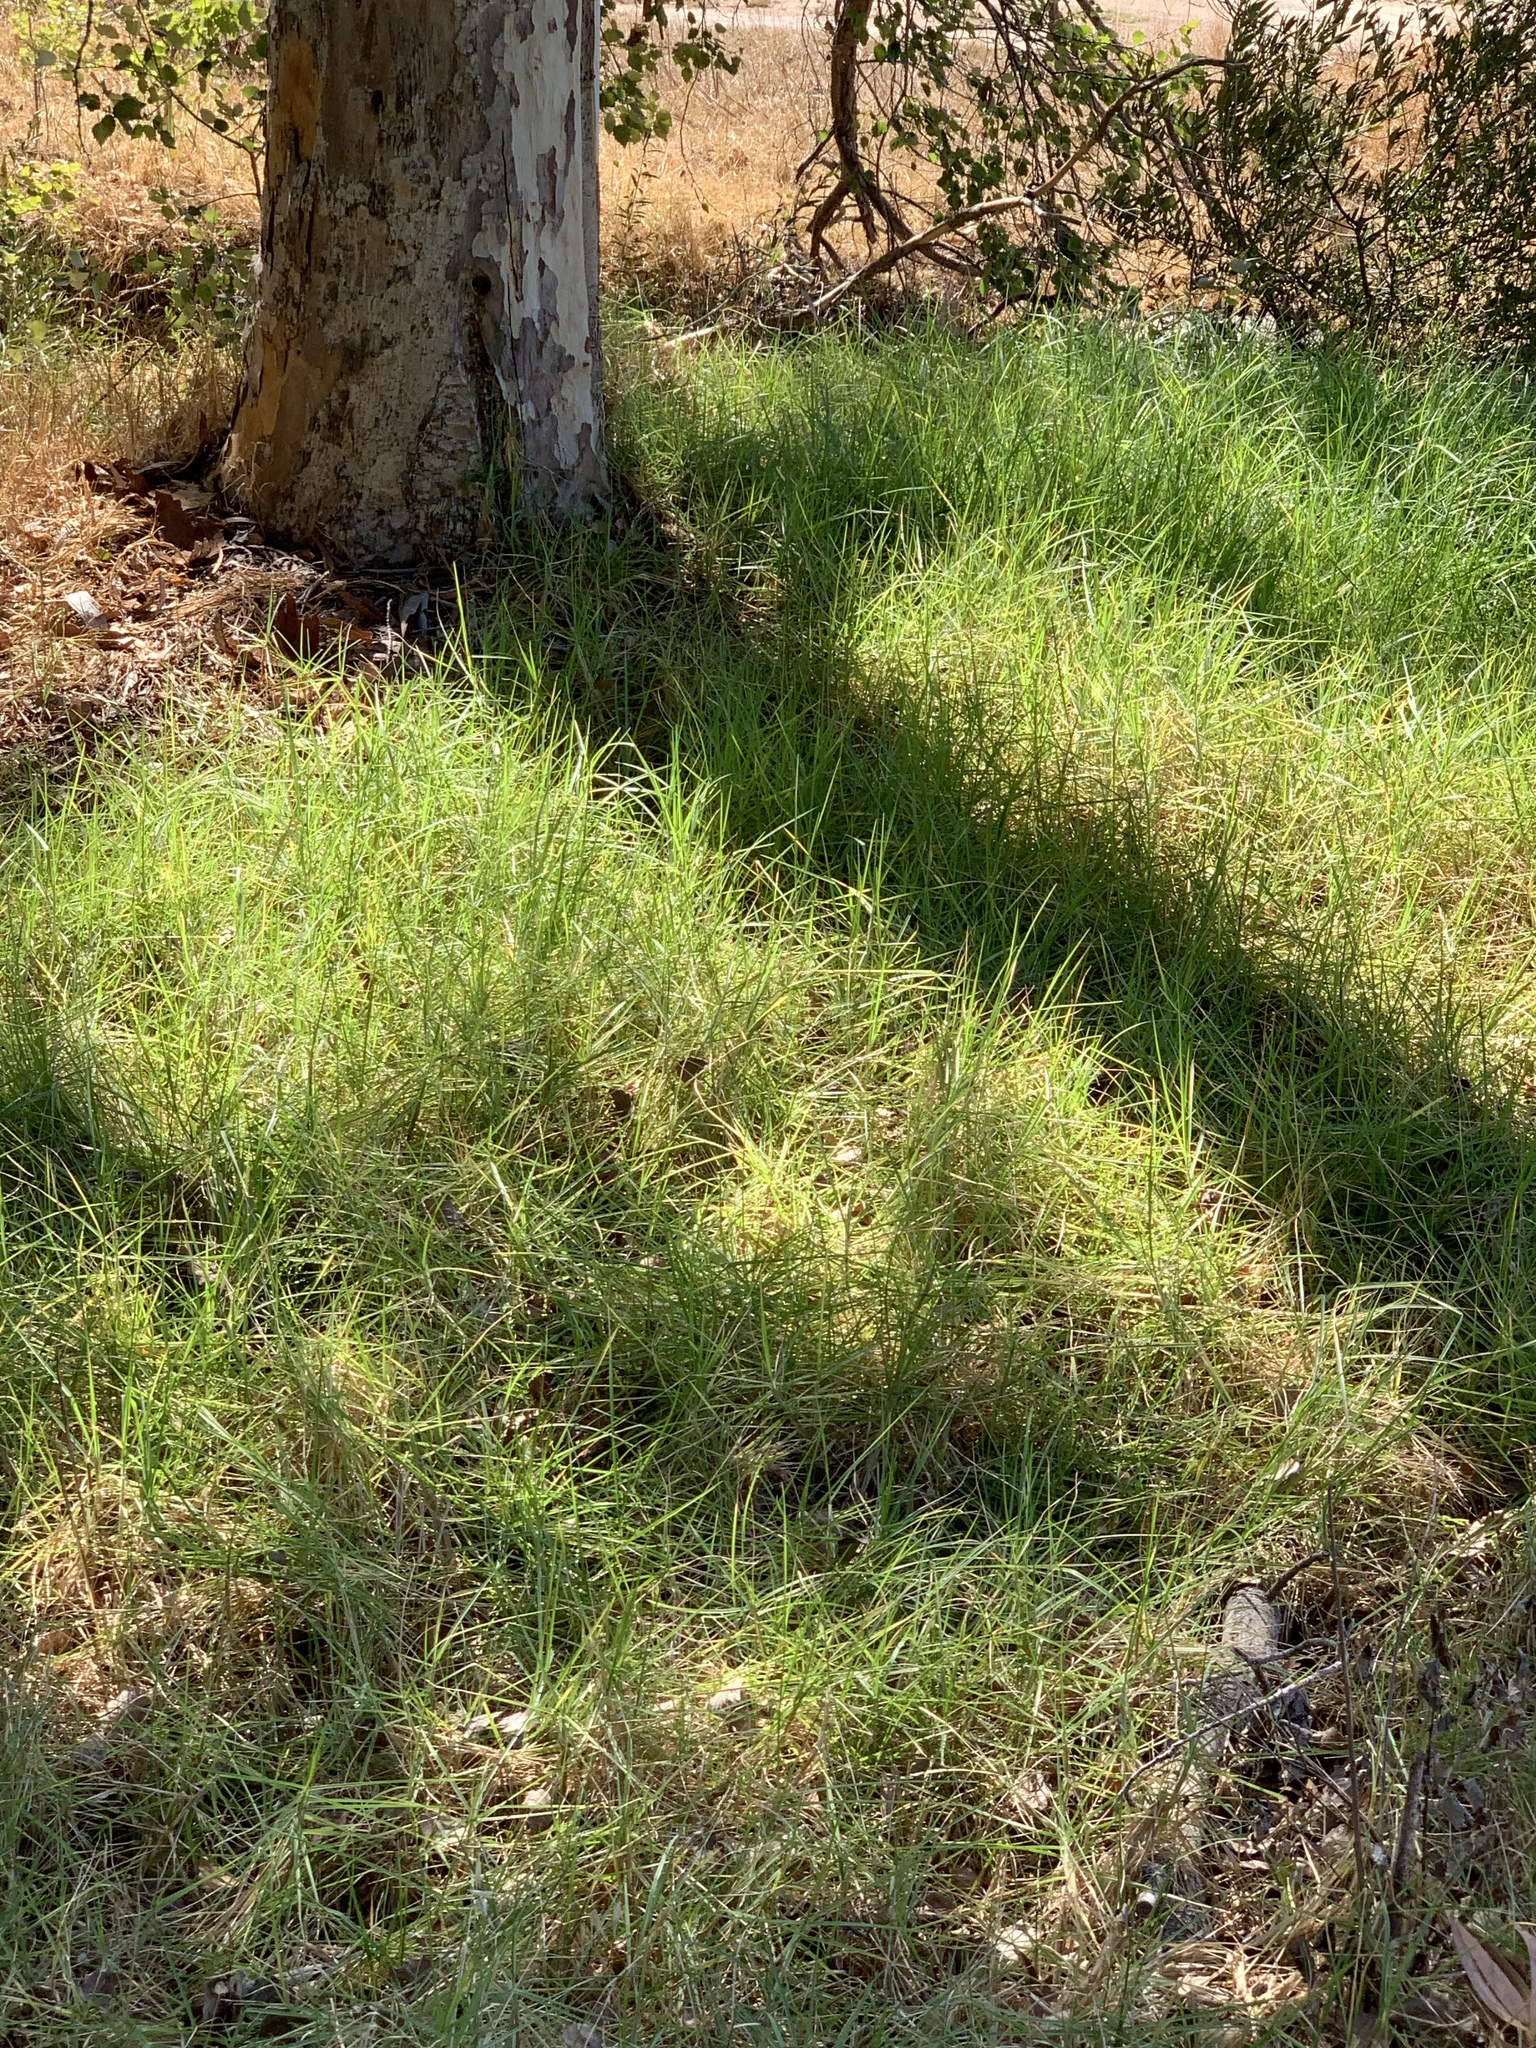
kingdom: Plantae
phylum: Tracheophyta
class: Liliopsida
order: Poales
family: Poaceae
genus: Cenchrus
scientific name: Cenchrus clandestinus
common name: Kikuyugrass
